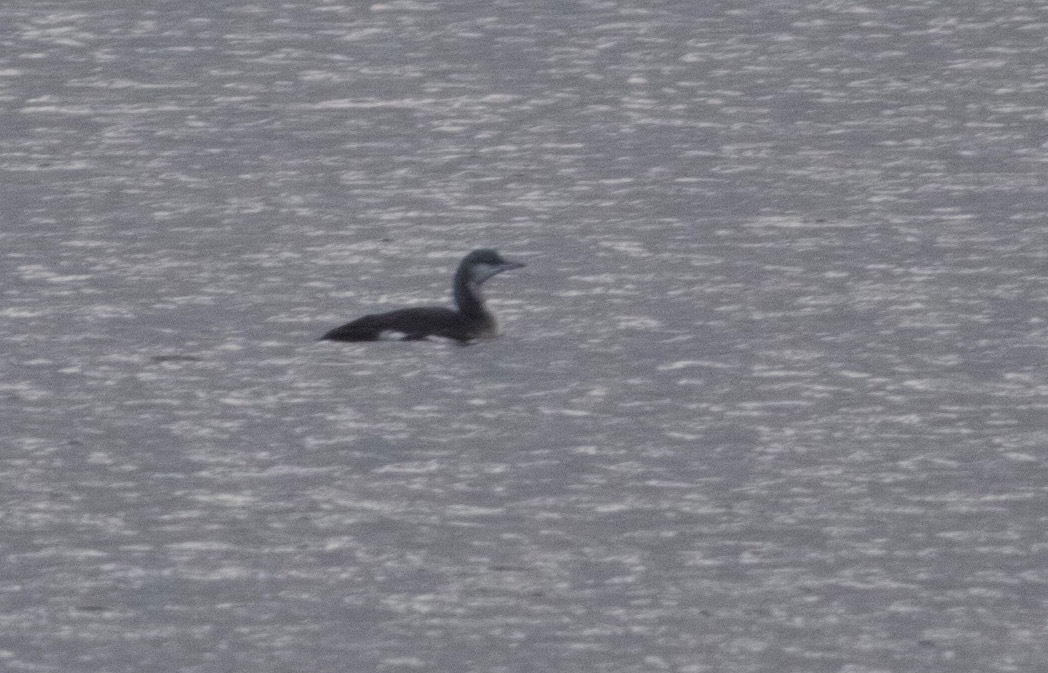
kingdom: Animalia
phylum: Chordata
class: Aves
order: Gaviiformes
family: Gaviidae
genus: Gavia
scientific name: Gavia arctica
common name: Black-throated loon
